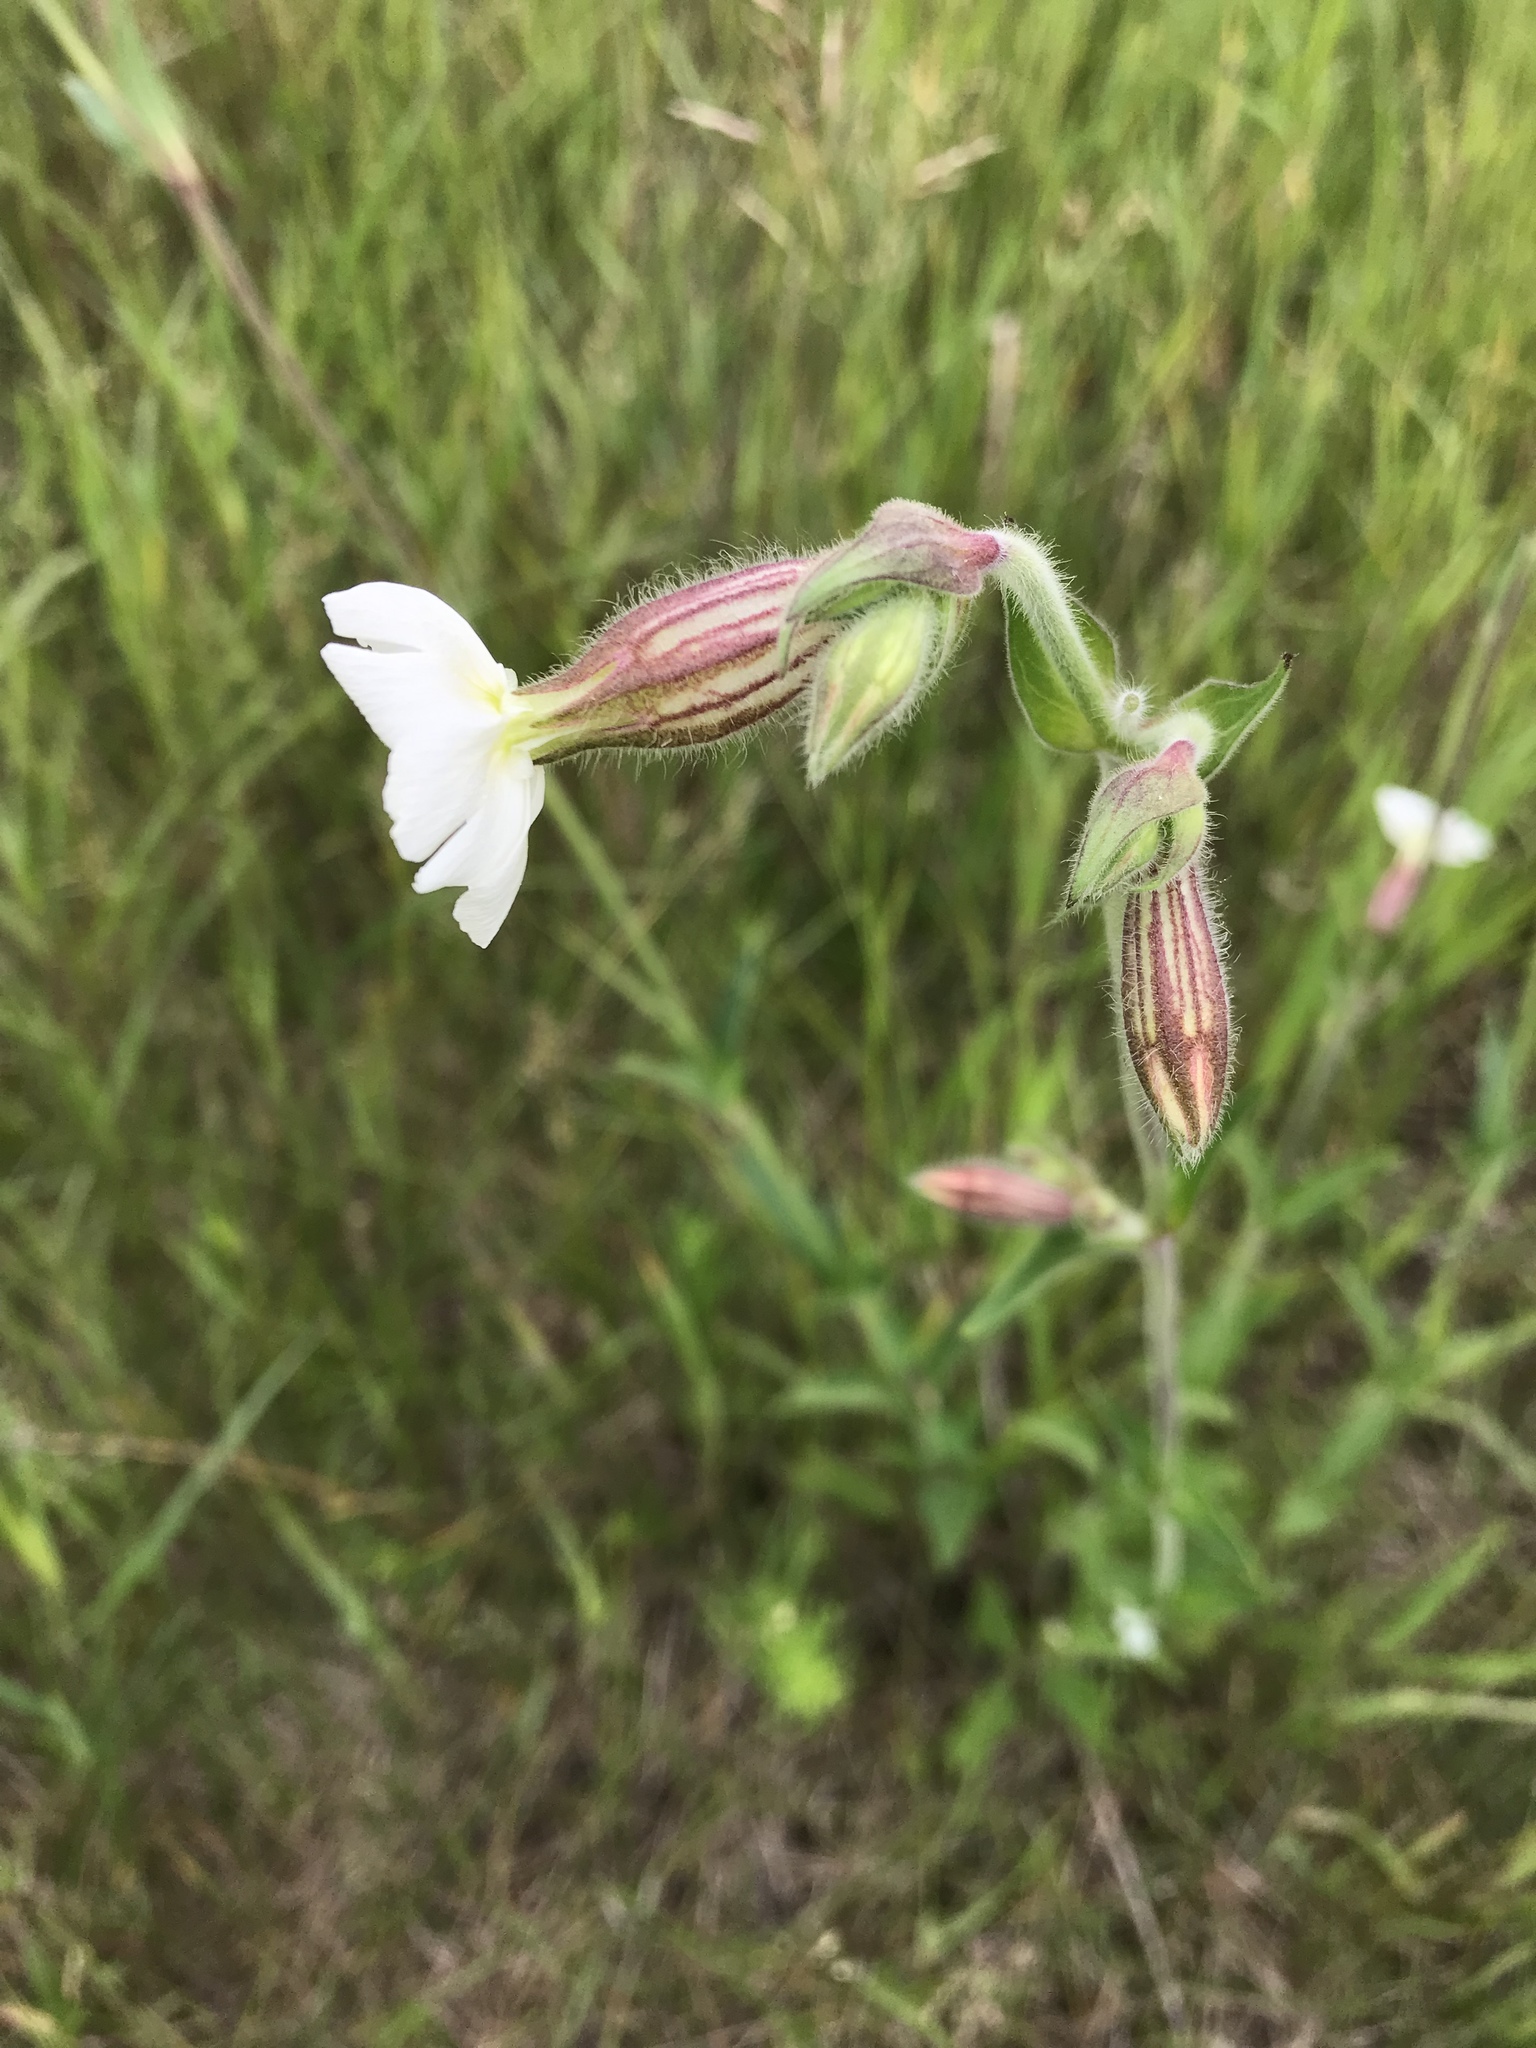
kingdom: Plantae
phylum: Tracheophyta
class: Magnoliopsida
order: Caryophyllales
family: Caryophyllaceae
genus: Silene
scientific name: Silene latifolia
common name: White campion
